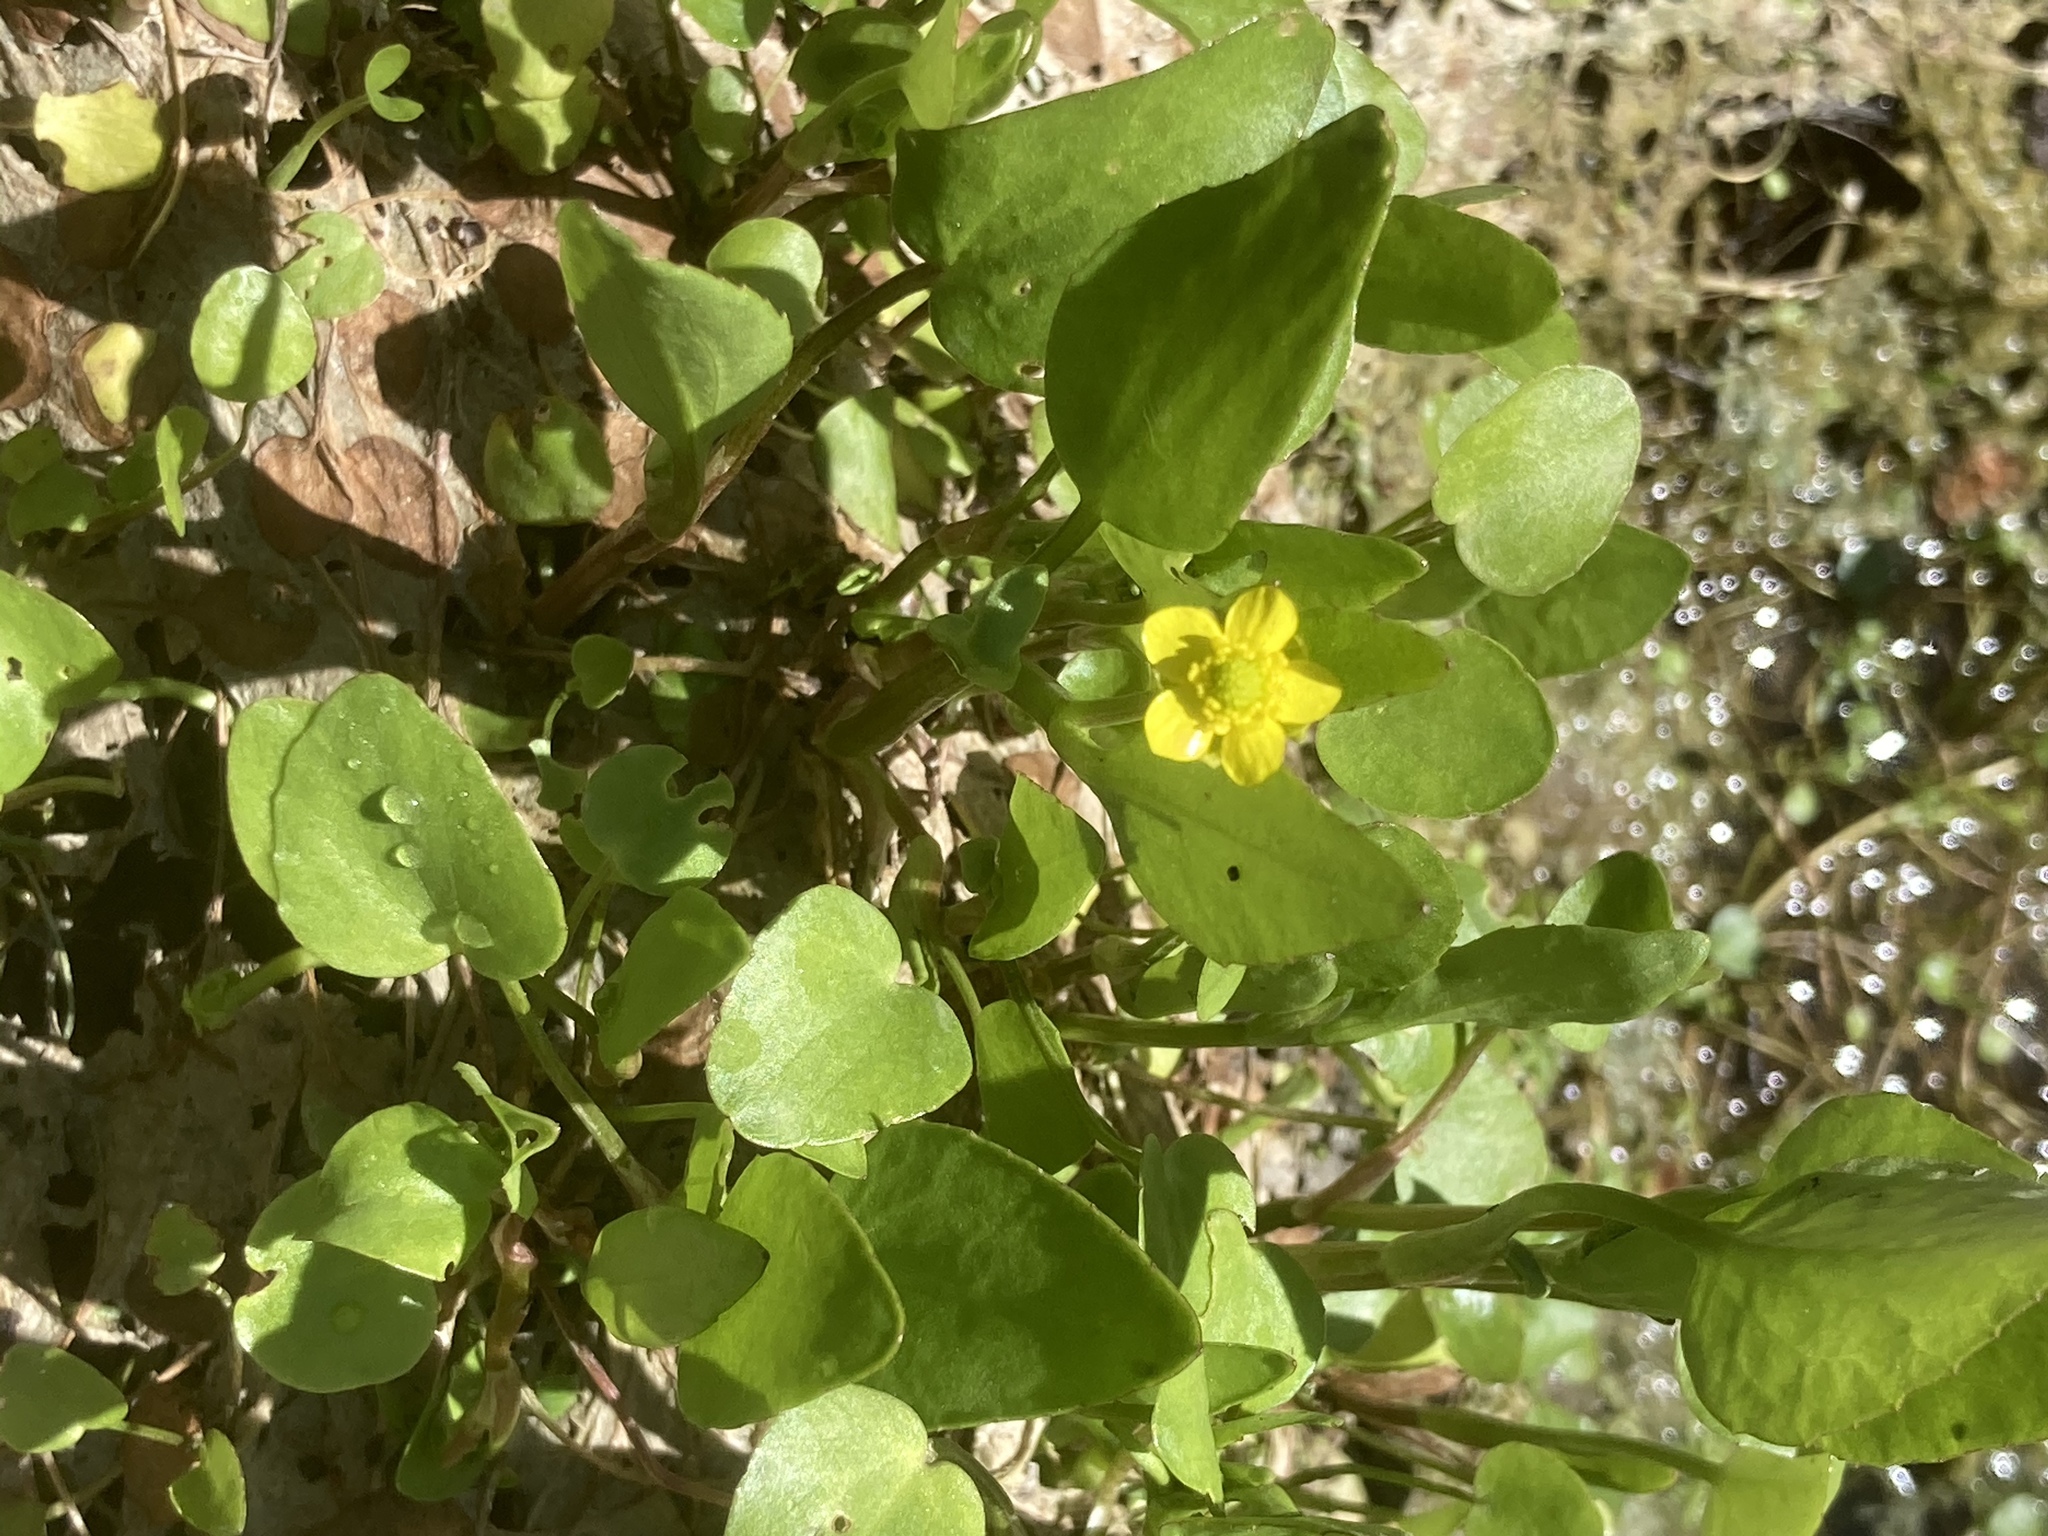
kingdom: Plantae
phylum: Tracheophyta
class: Magnoliopsida
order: Ranunculales
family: Ranunculaceae
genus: Ranunculus
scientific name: Ranunculus ophioglossifolius
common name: Adder's-tongue spearwort
